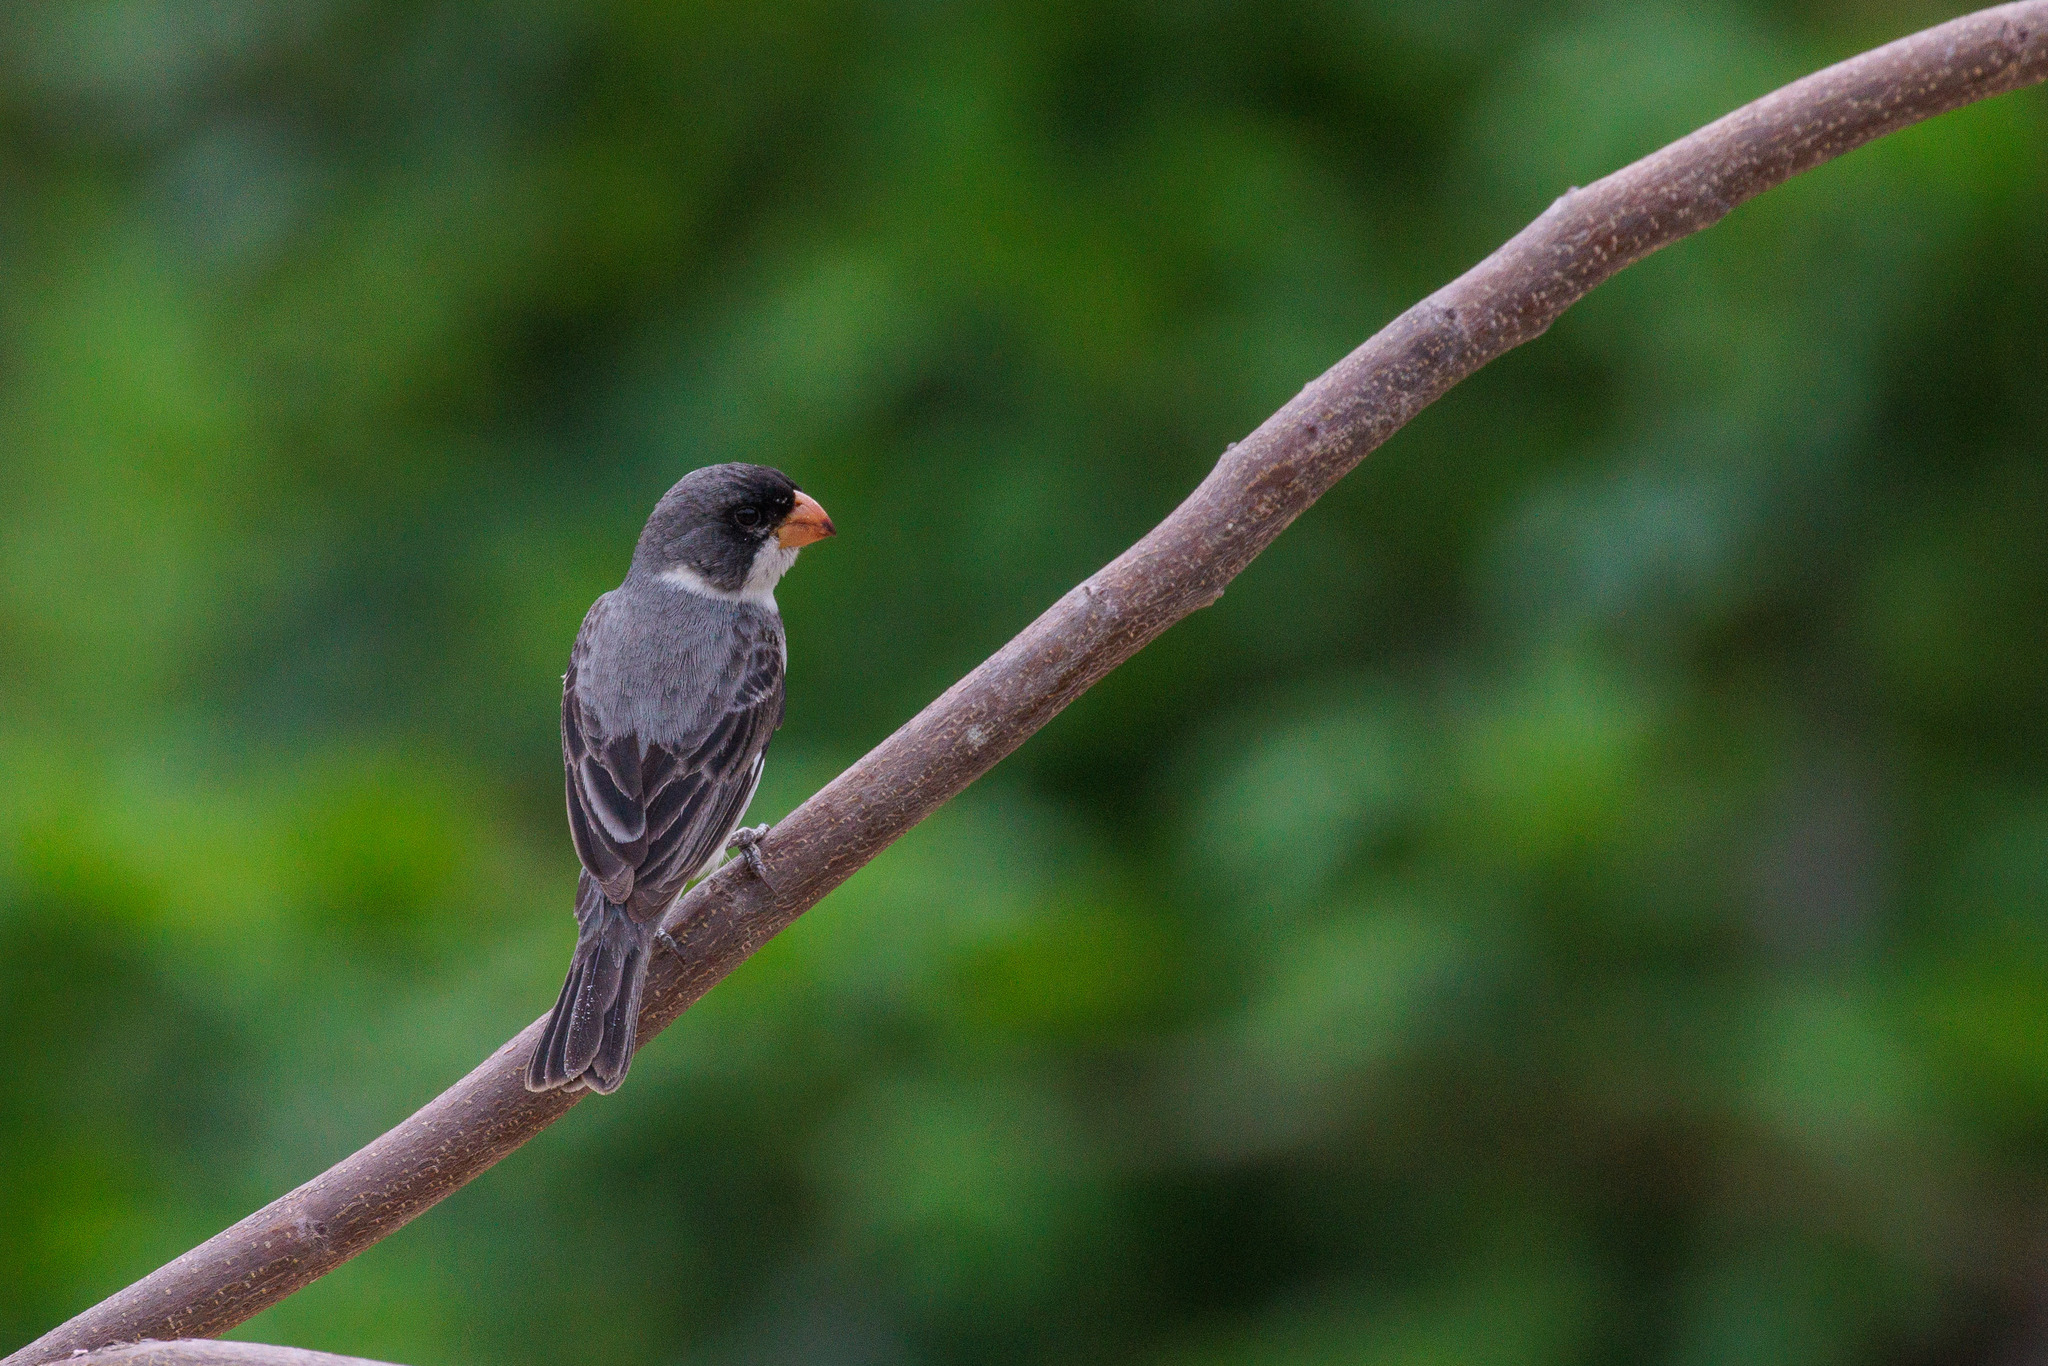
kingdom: Animalia
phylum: Chordata
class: Aves
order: Passeriformes
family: Thraupidae
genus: Sporophila
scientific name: Sporophila albogularis
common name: White-throated seedeater
